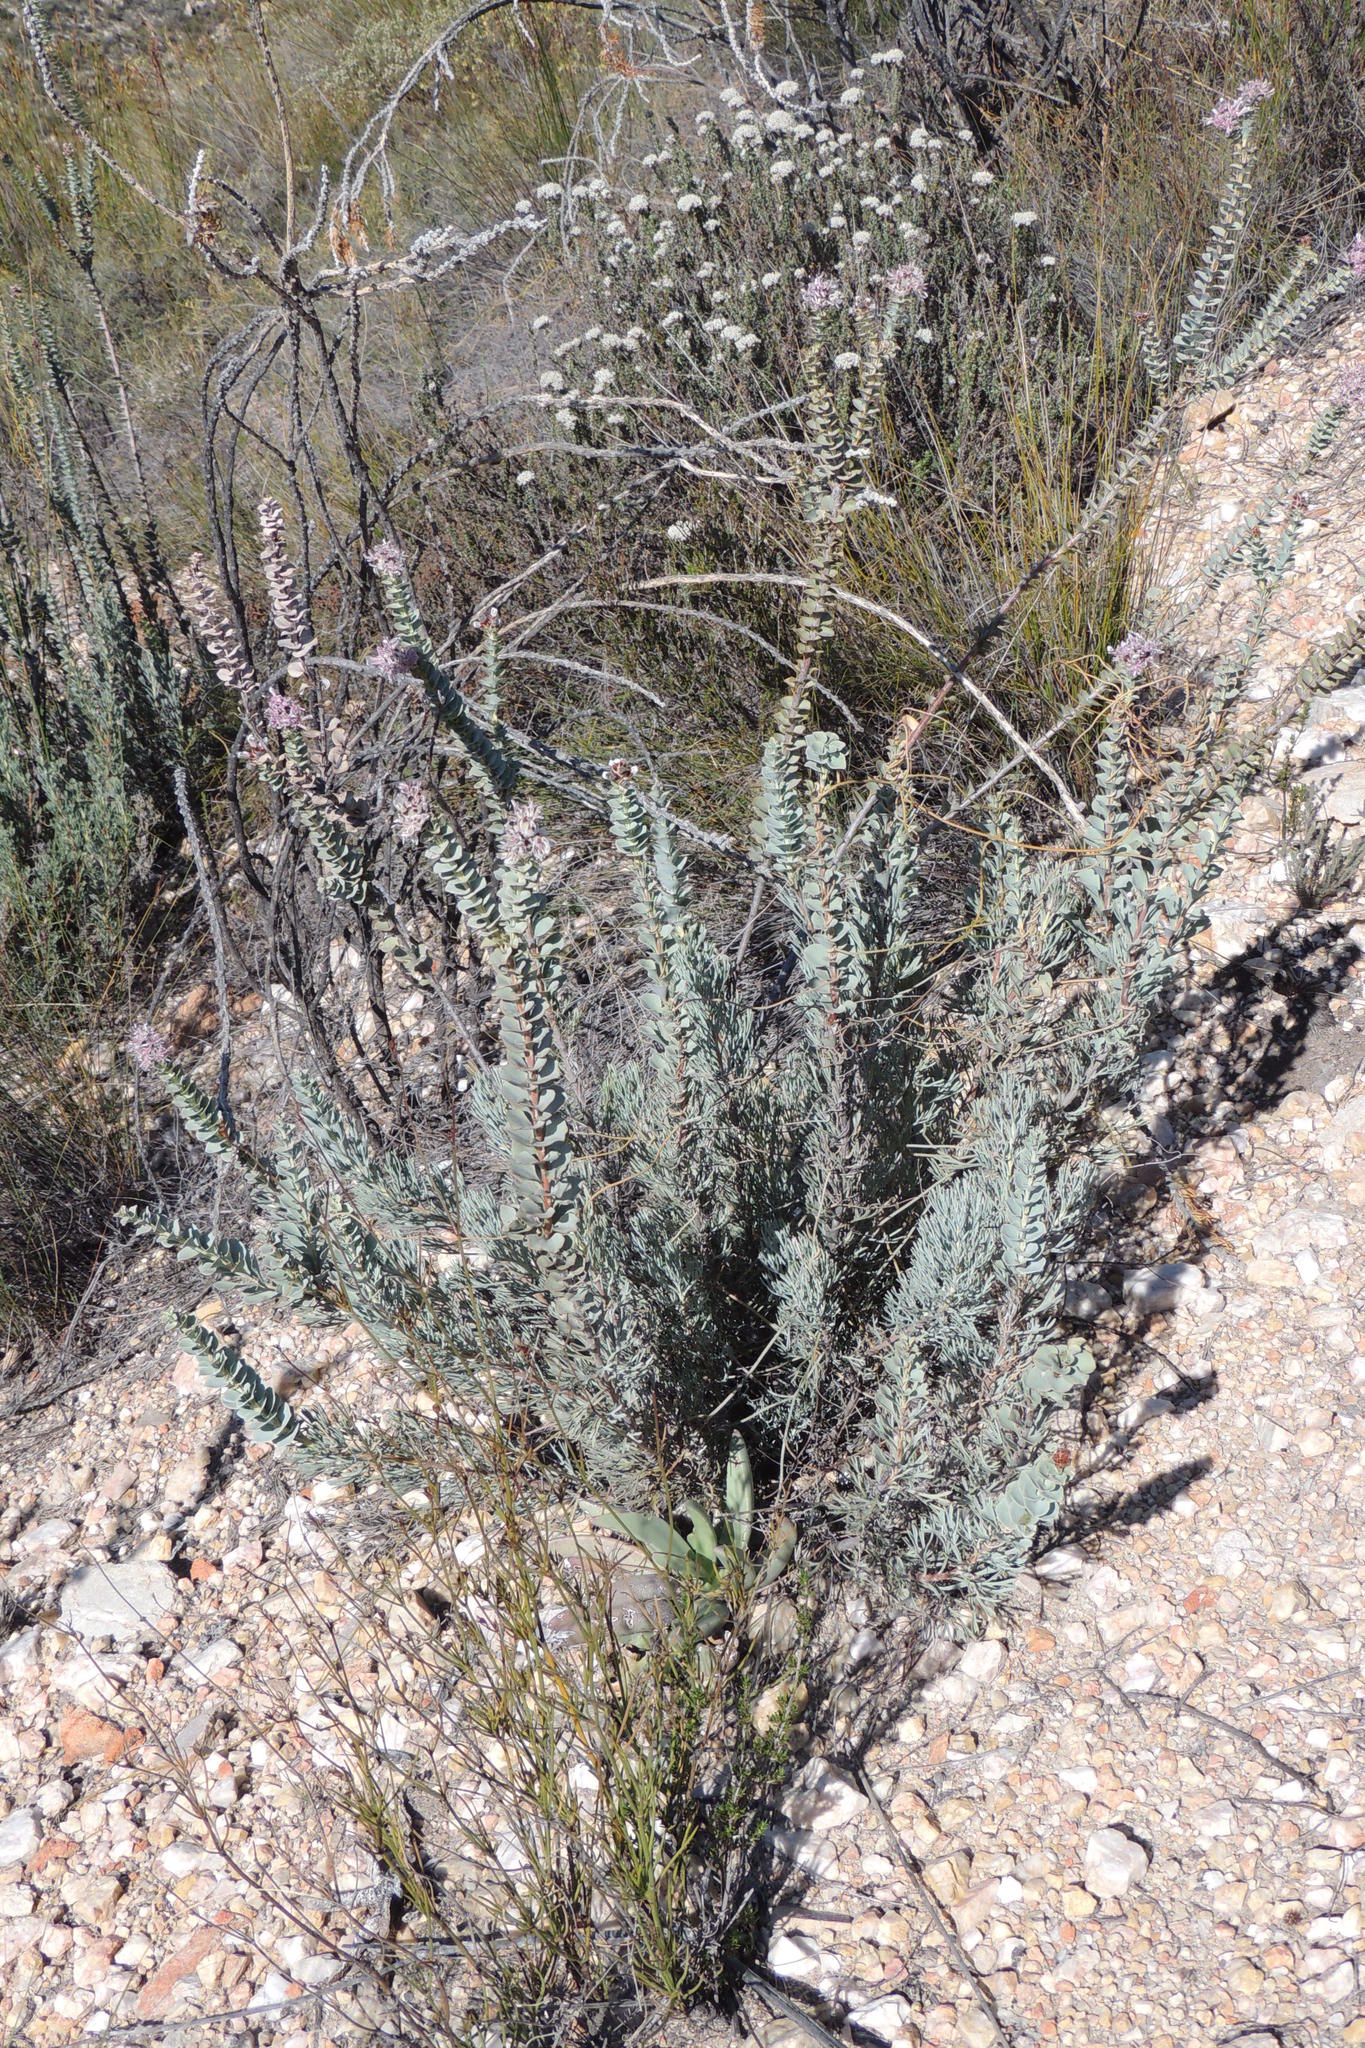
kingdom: Plantae
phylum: Tracheophyta
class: Magnoliopsida
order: Proteales
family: Proteaceae
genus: Paranomus
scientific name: Paranomus spathulatus
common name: Langeberg sceptre
